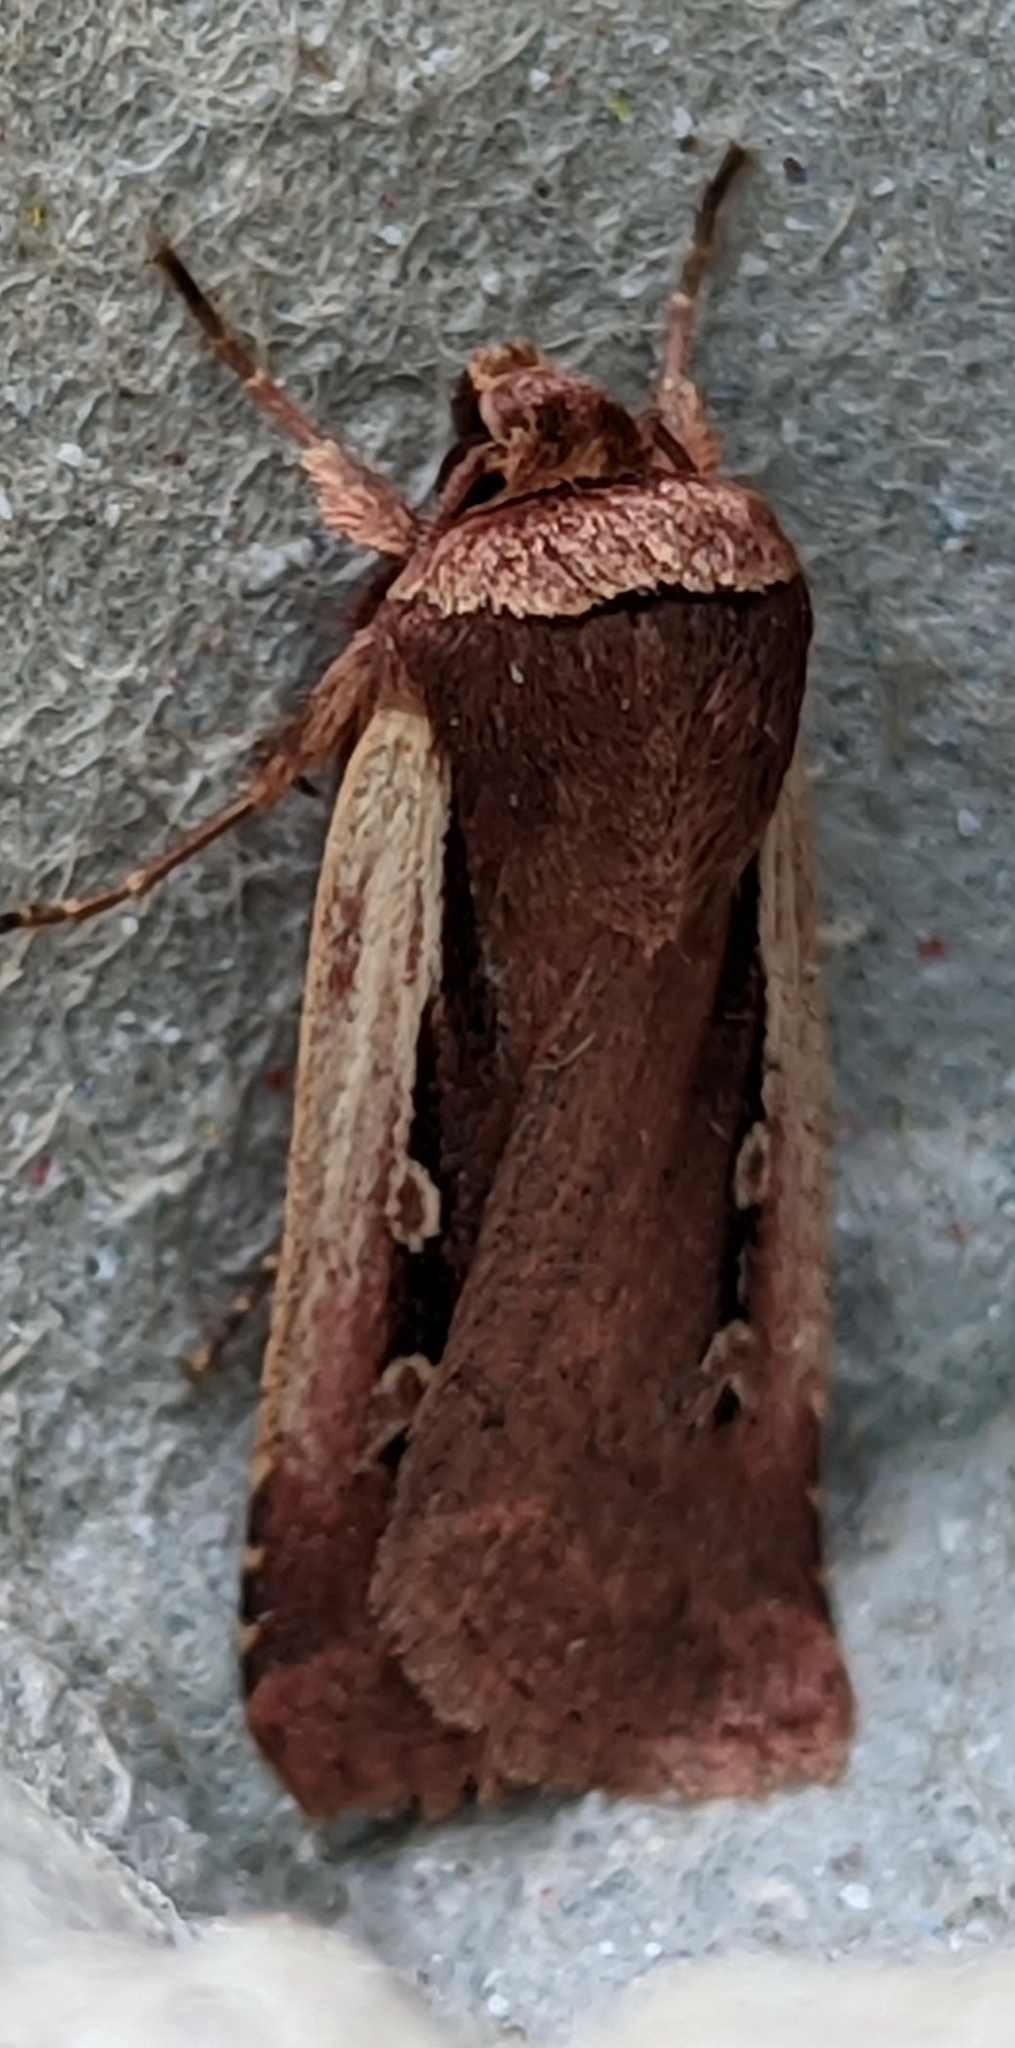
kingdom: Animalia
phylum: Arthropoda
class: Insecta
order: Lepidoptera
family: Noctuidae
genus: Ochropleura
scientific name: Ochropleura plecta
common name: Flame shoulder
